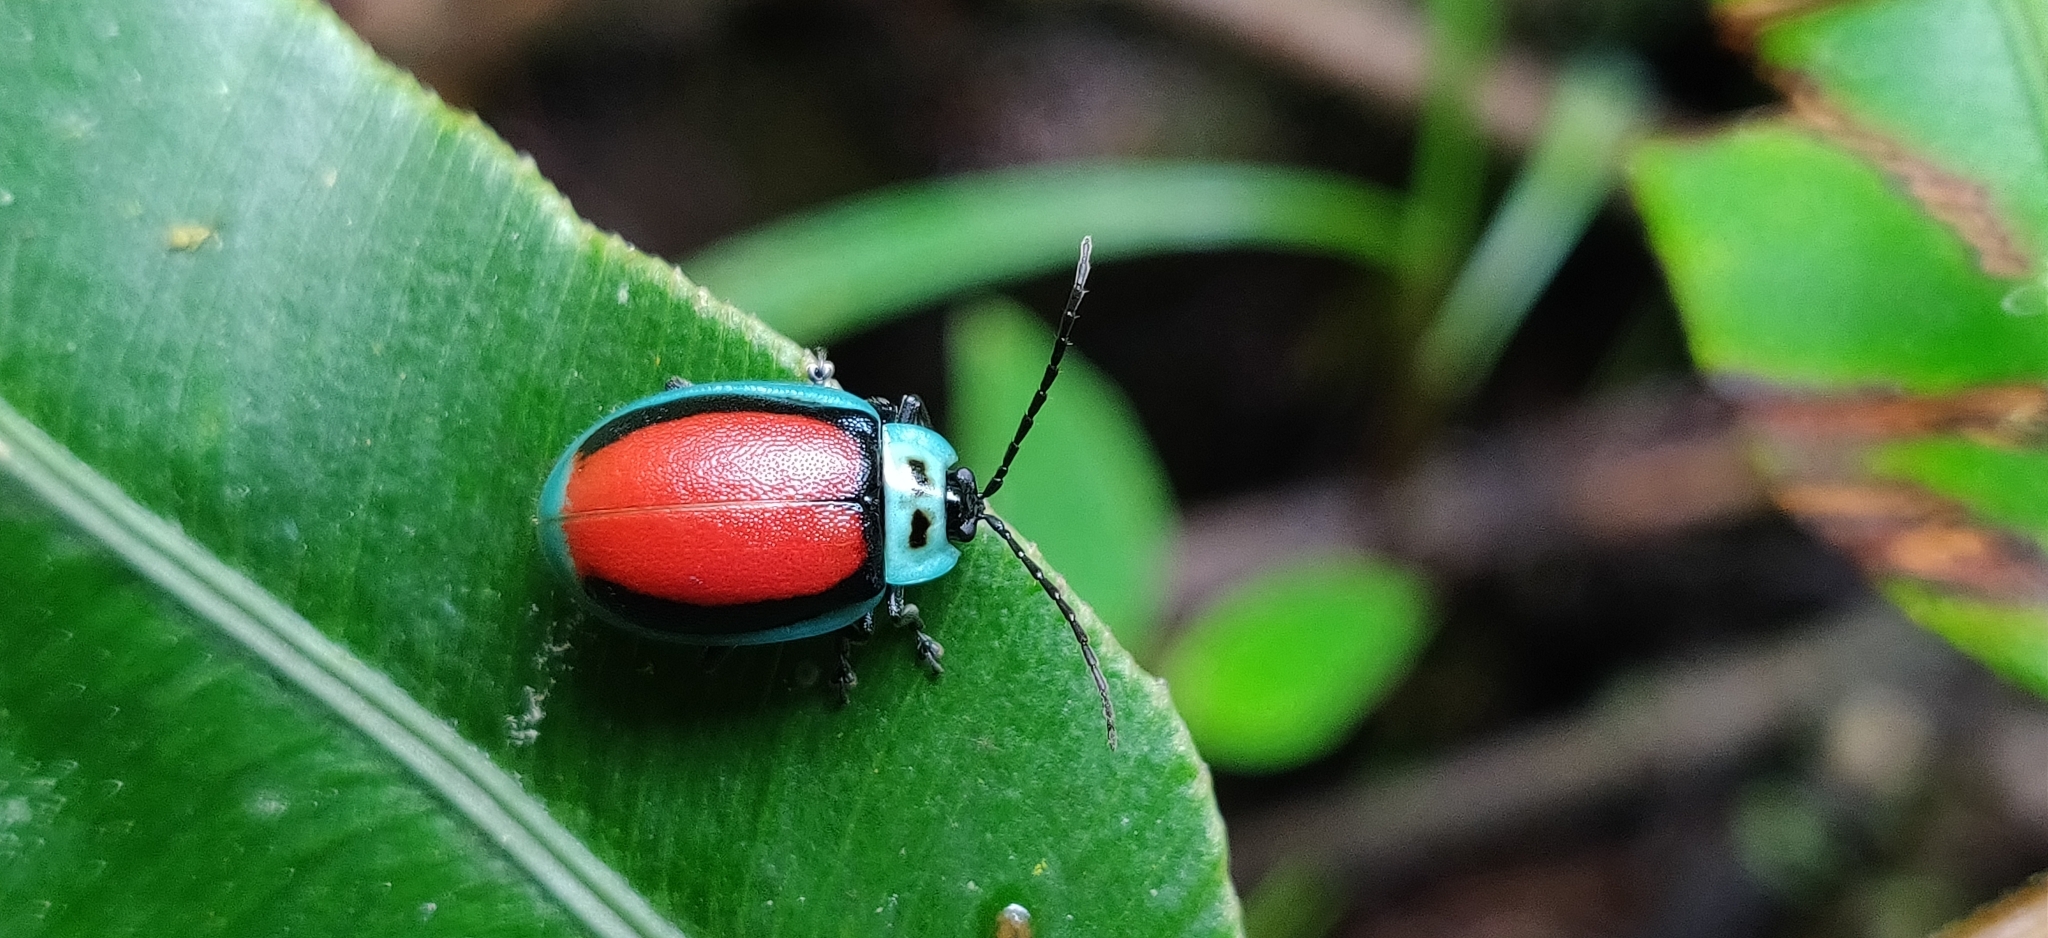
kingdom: Animalia
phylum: Arthropoda
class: Insecta
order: Coleoptera
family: Chrysomelidae
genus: Aspicela
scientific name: Aspicela
